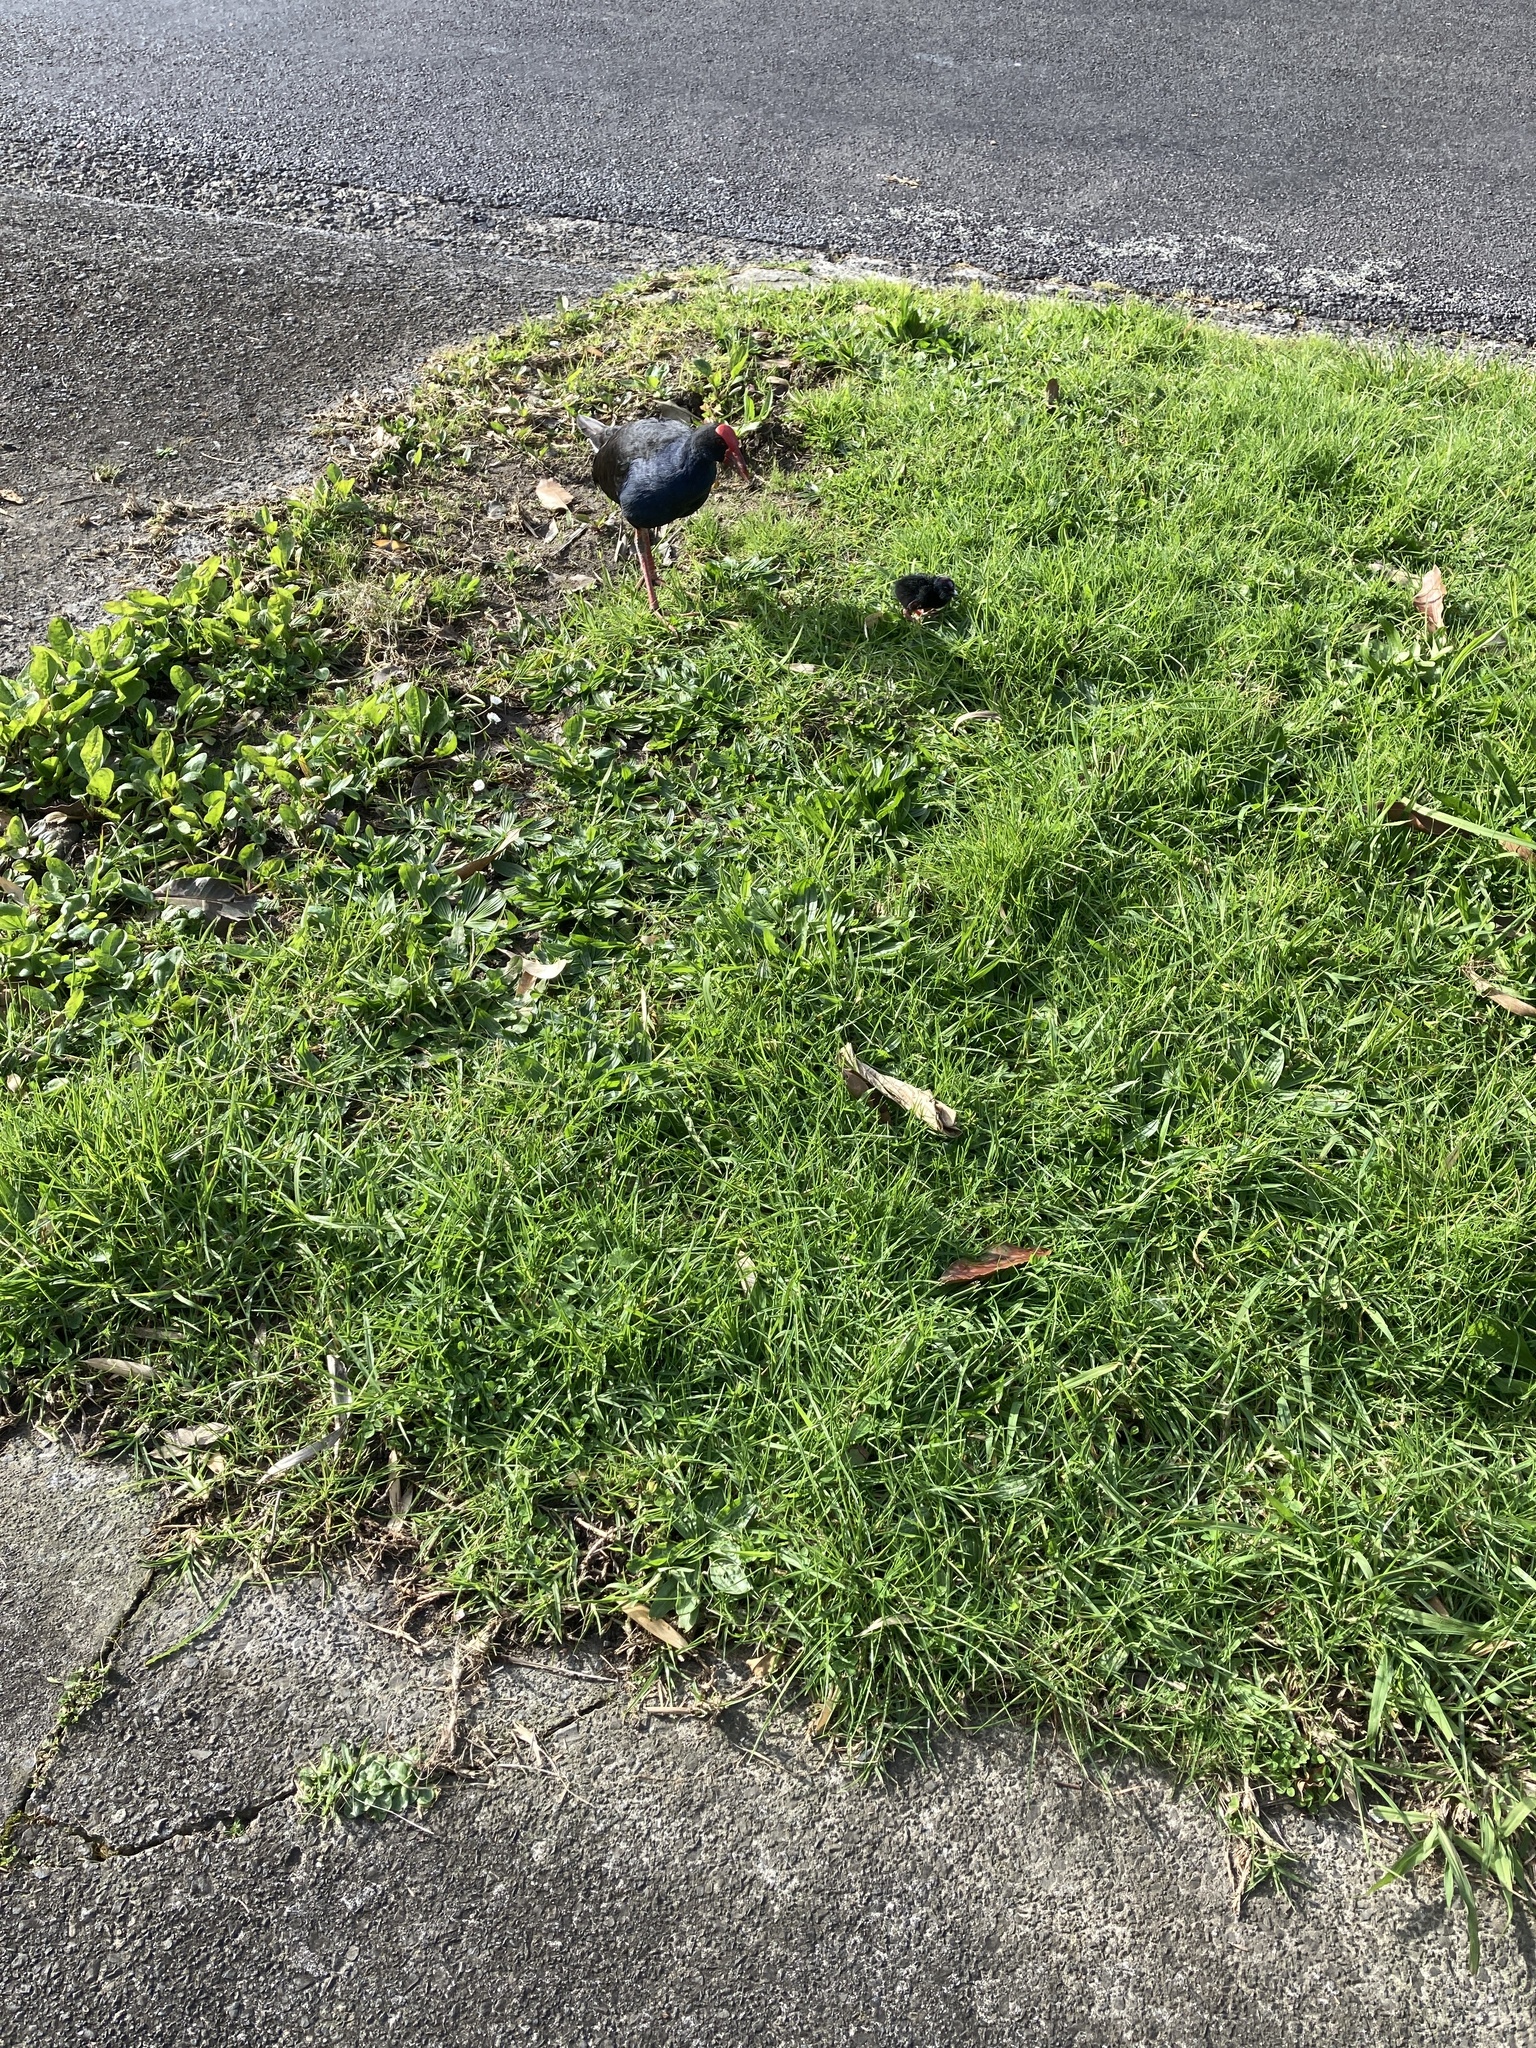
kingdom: Animalia
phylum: Chordata
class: Aves
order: Gruiformes
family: Rallidae
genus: Porphyrio
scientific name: Porphyrio melanotus
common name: Australasian swamphen
